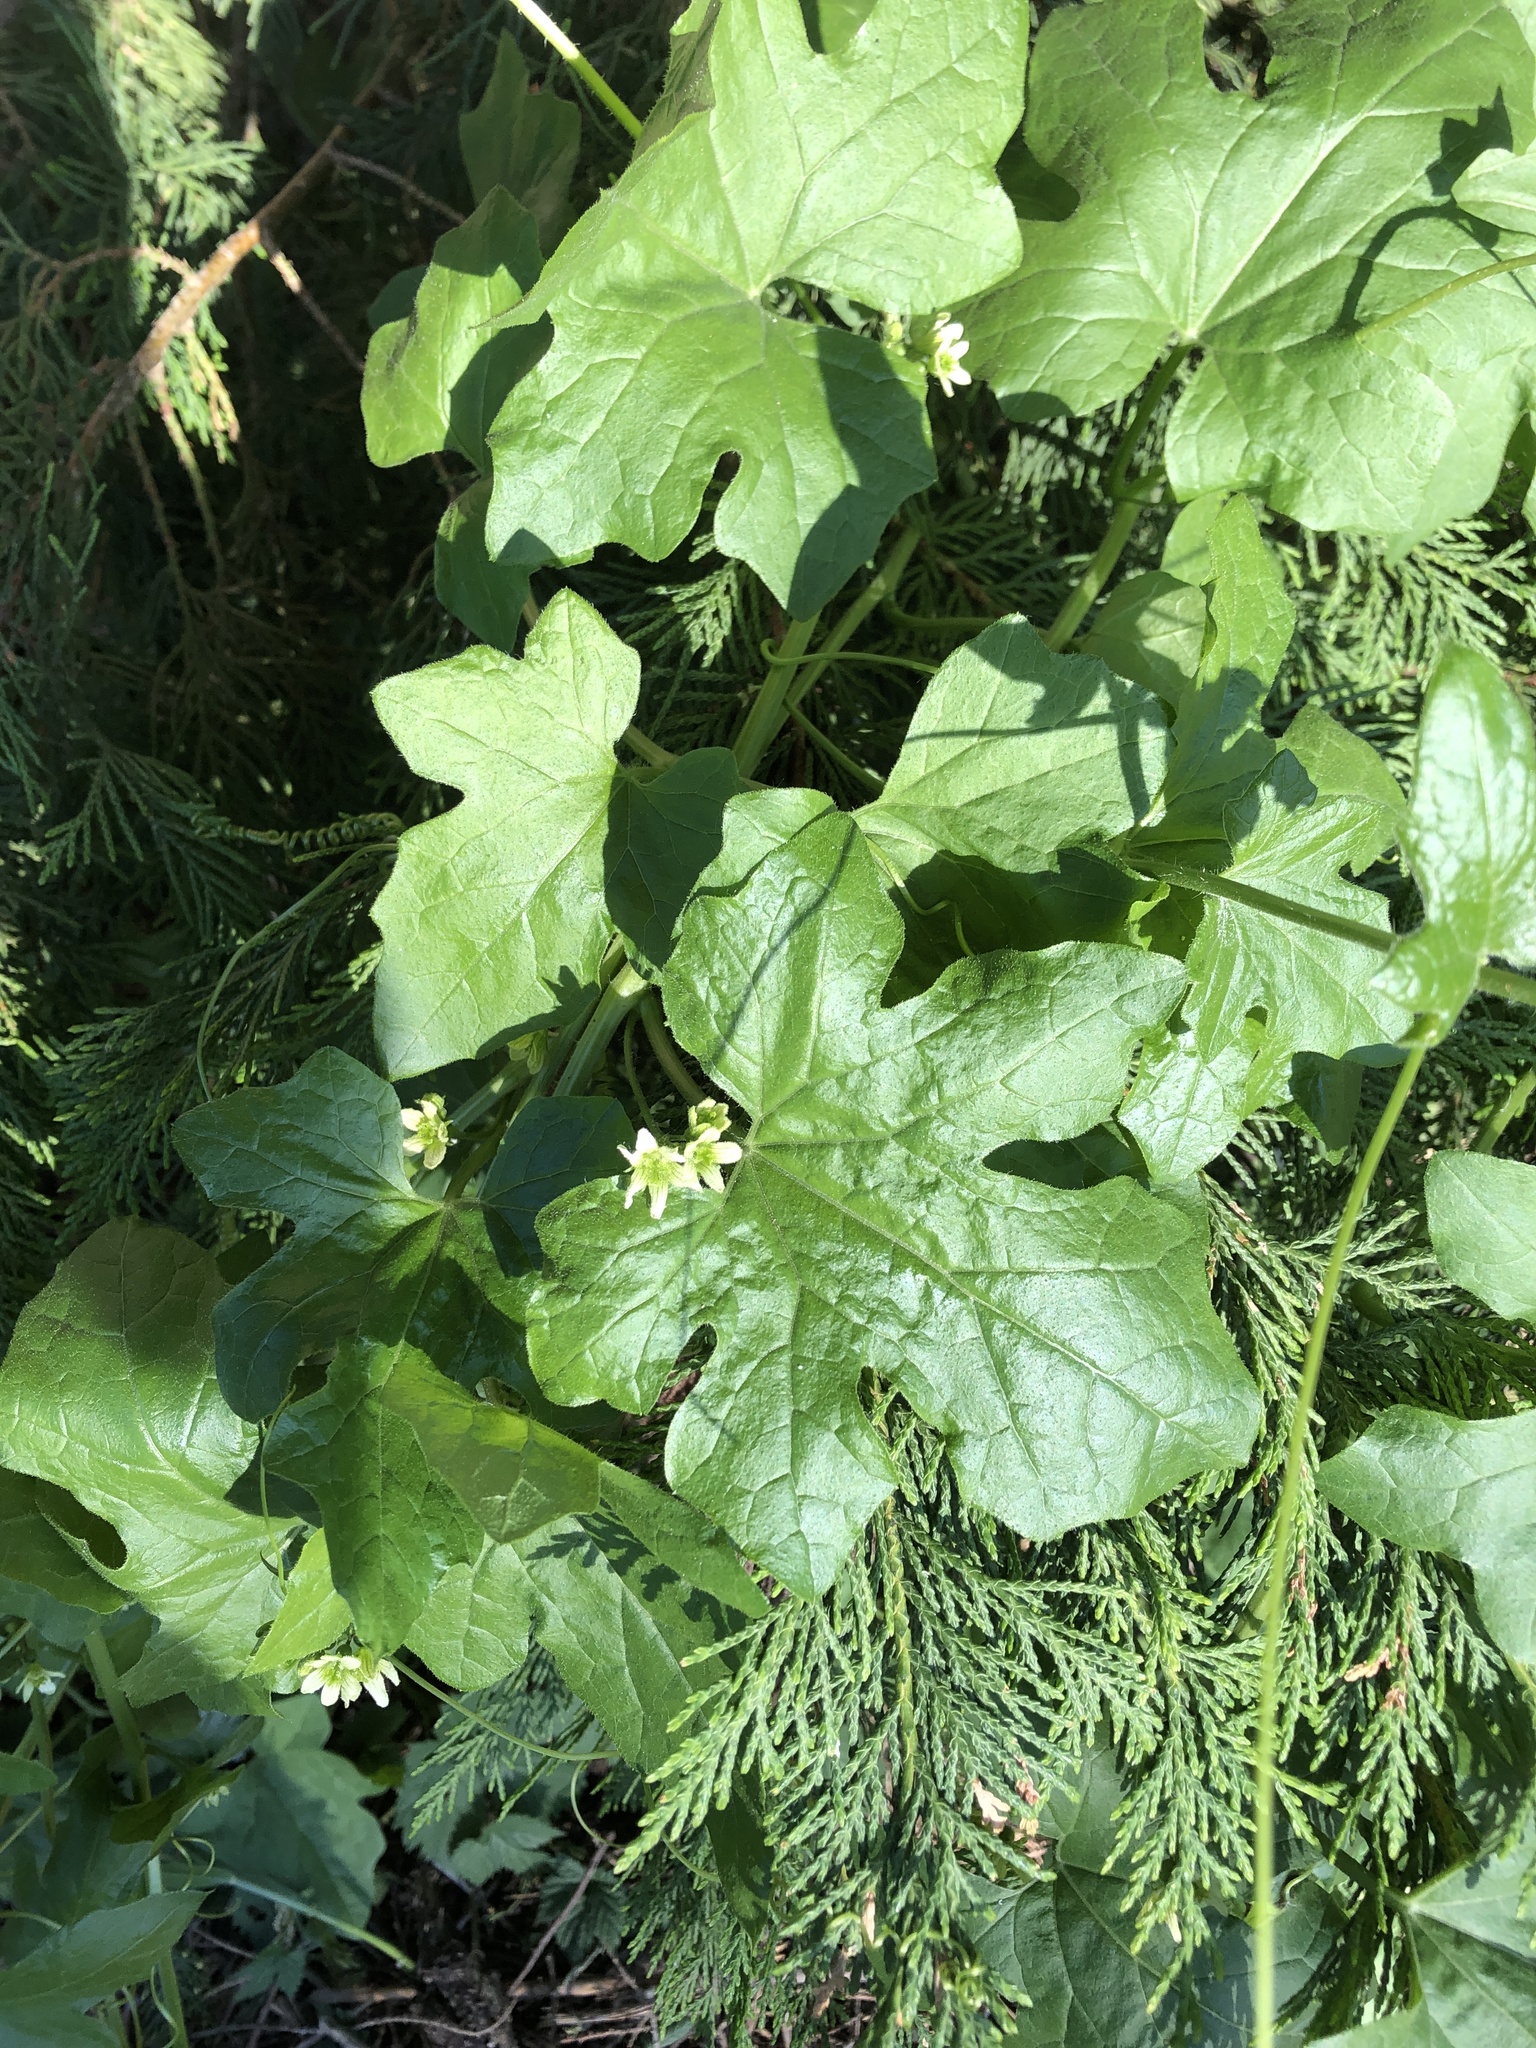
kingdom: Plantae
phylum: Tracheophyta
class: Magnoliopsida
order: Cucurbitales
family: Cucurbitaceae
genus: Bryonia
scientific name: Bryonia cretica
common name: Cretan bryony
